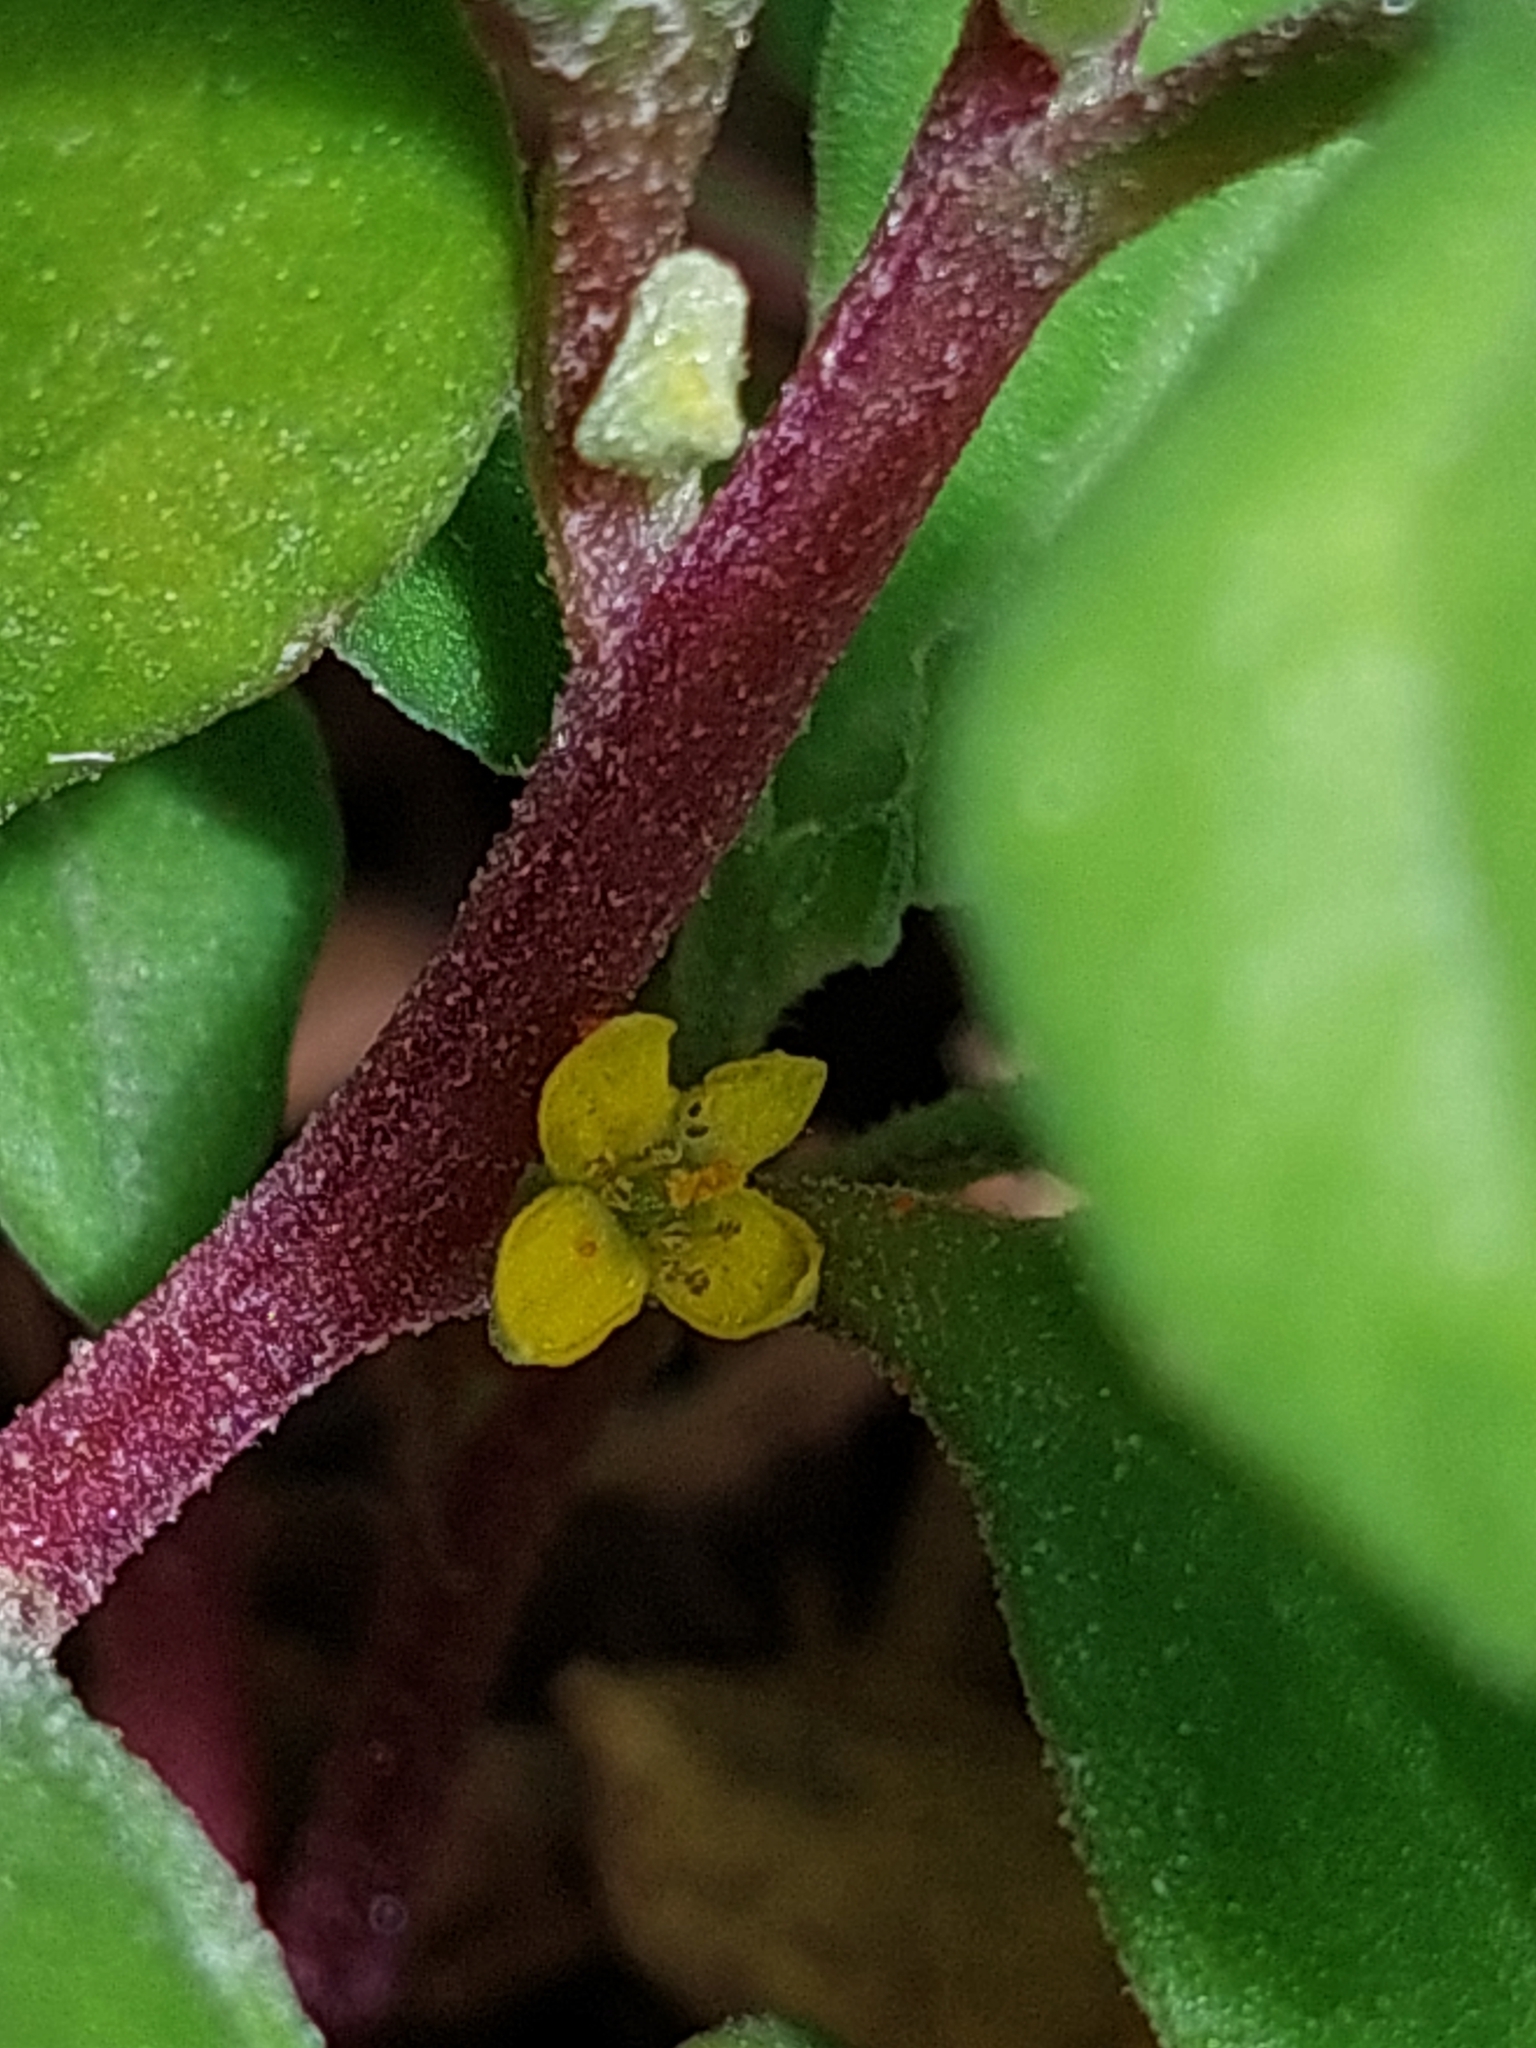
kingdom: Plantae
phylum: Tracheophyta
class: Magnoliopsida
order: Caryophyllales
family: Aizoaceae
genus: Tetragonia
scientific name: Tetragonia implexicoma
